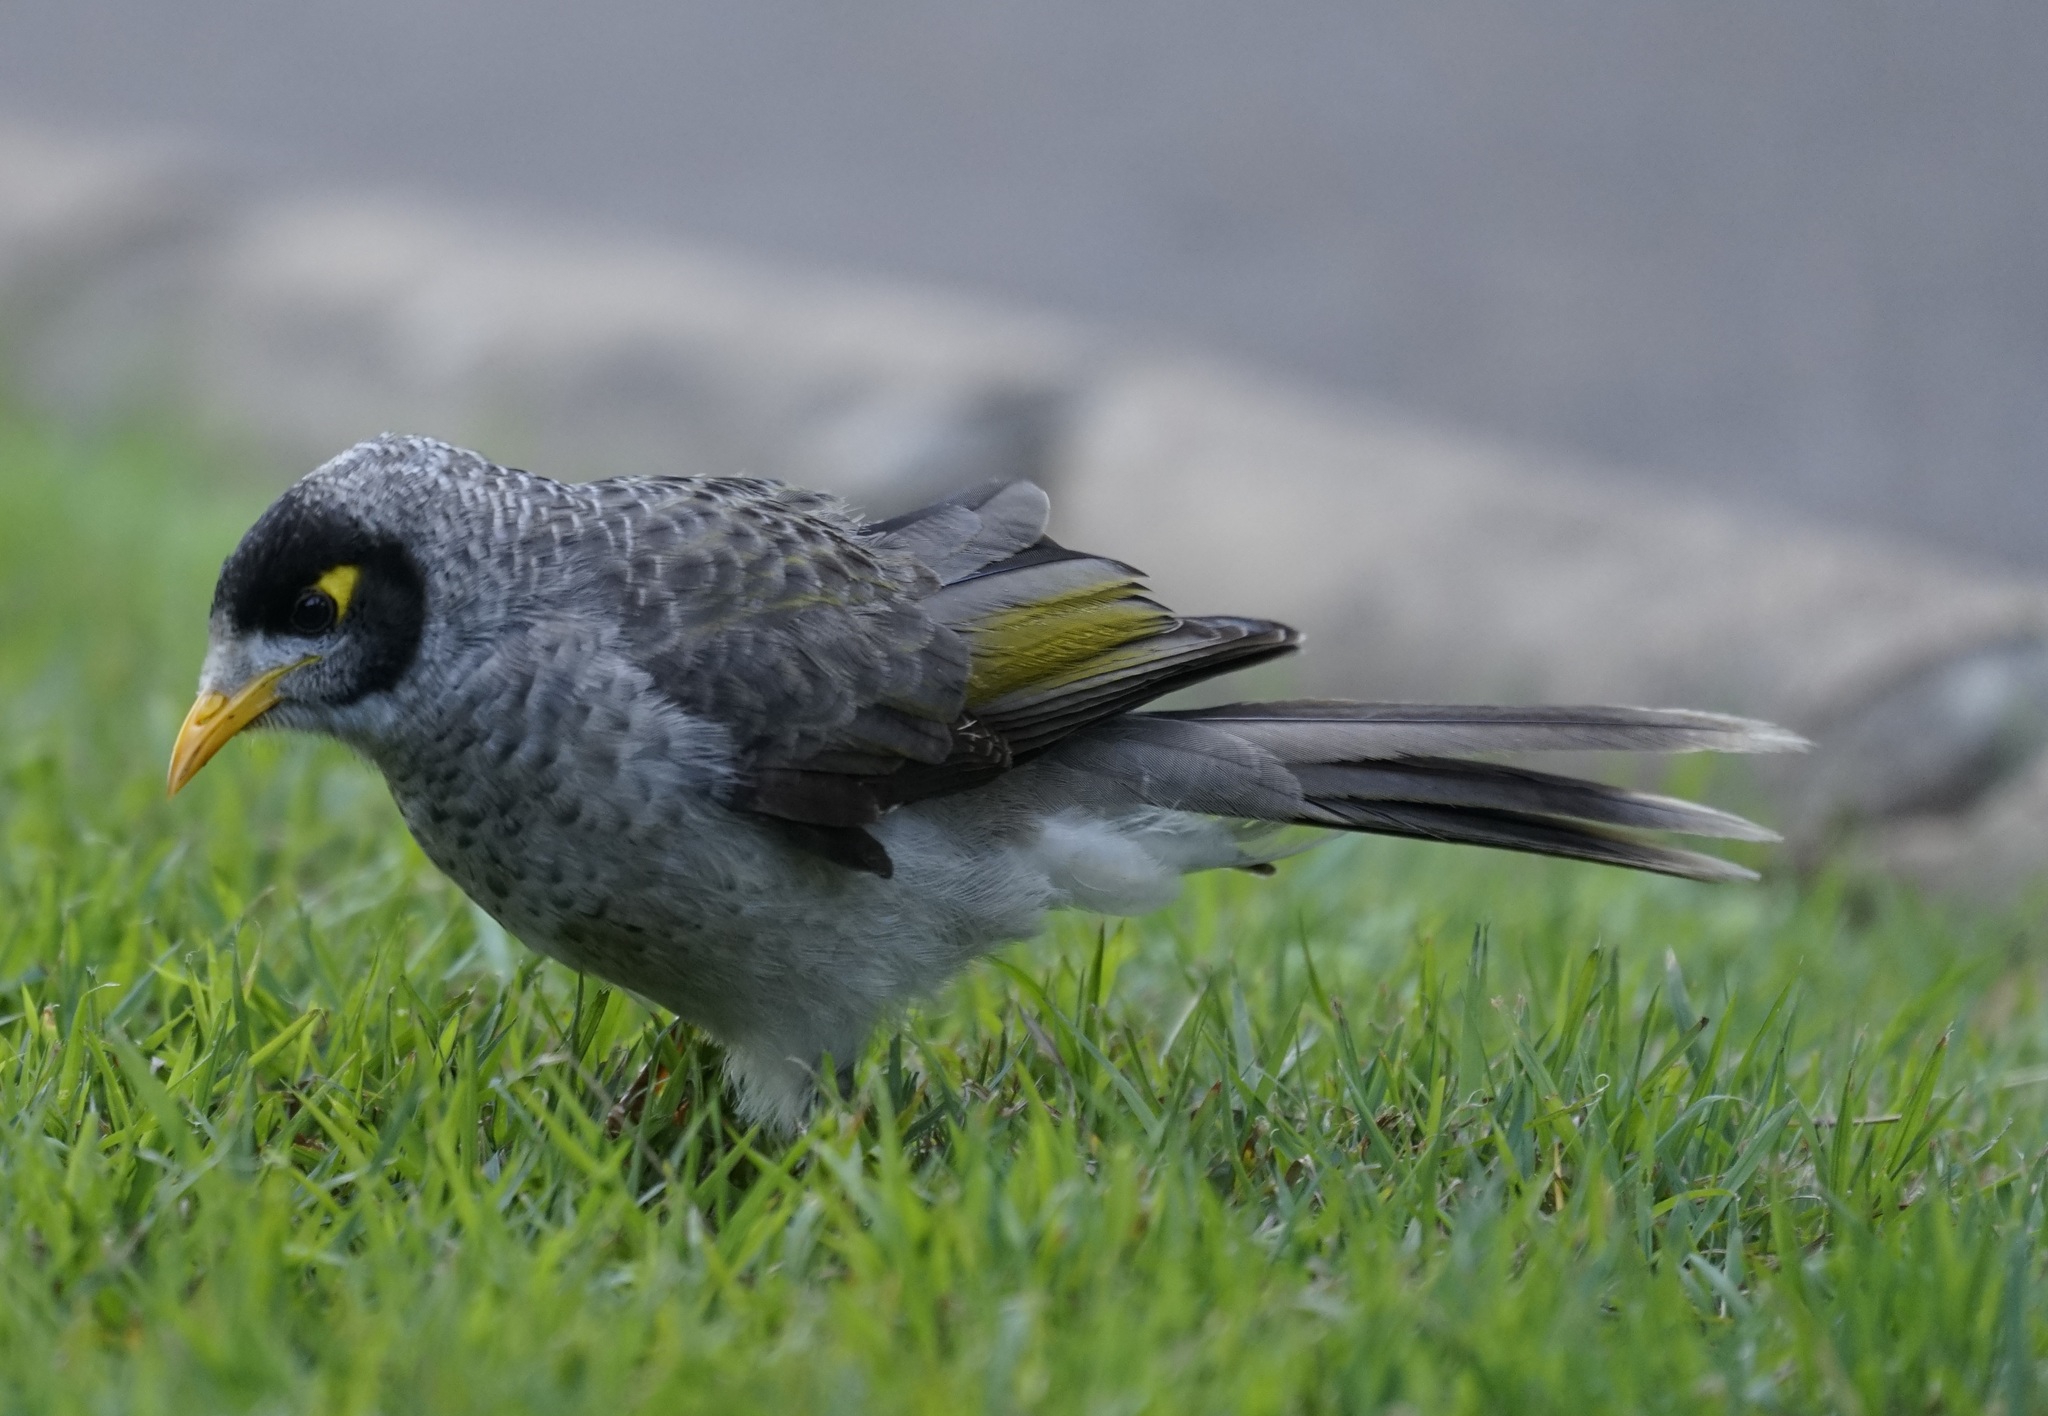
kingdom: Animalia
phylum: Chordata
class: Aves
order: Passeriformes
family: Meliphagidae
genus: Manorina
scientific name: Manorina melanocephala
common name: Noisy miner
